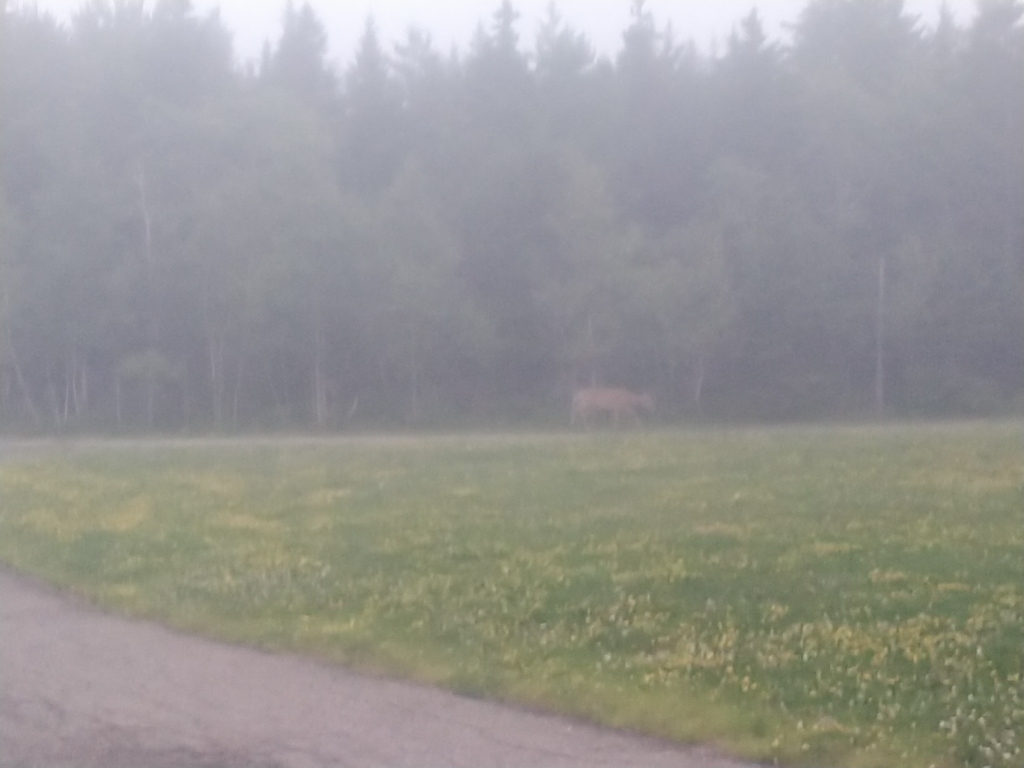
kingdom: Animalia
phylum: Chordata
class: Mammalia
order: Artiodactyla
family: Cervidae
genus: Odocoileus
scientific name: Odocoileus virginianus
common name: White-tailed deer
